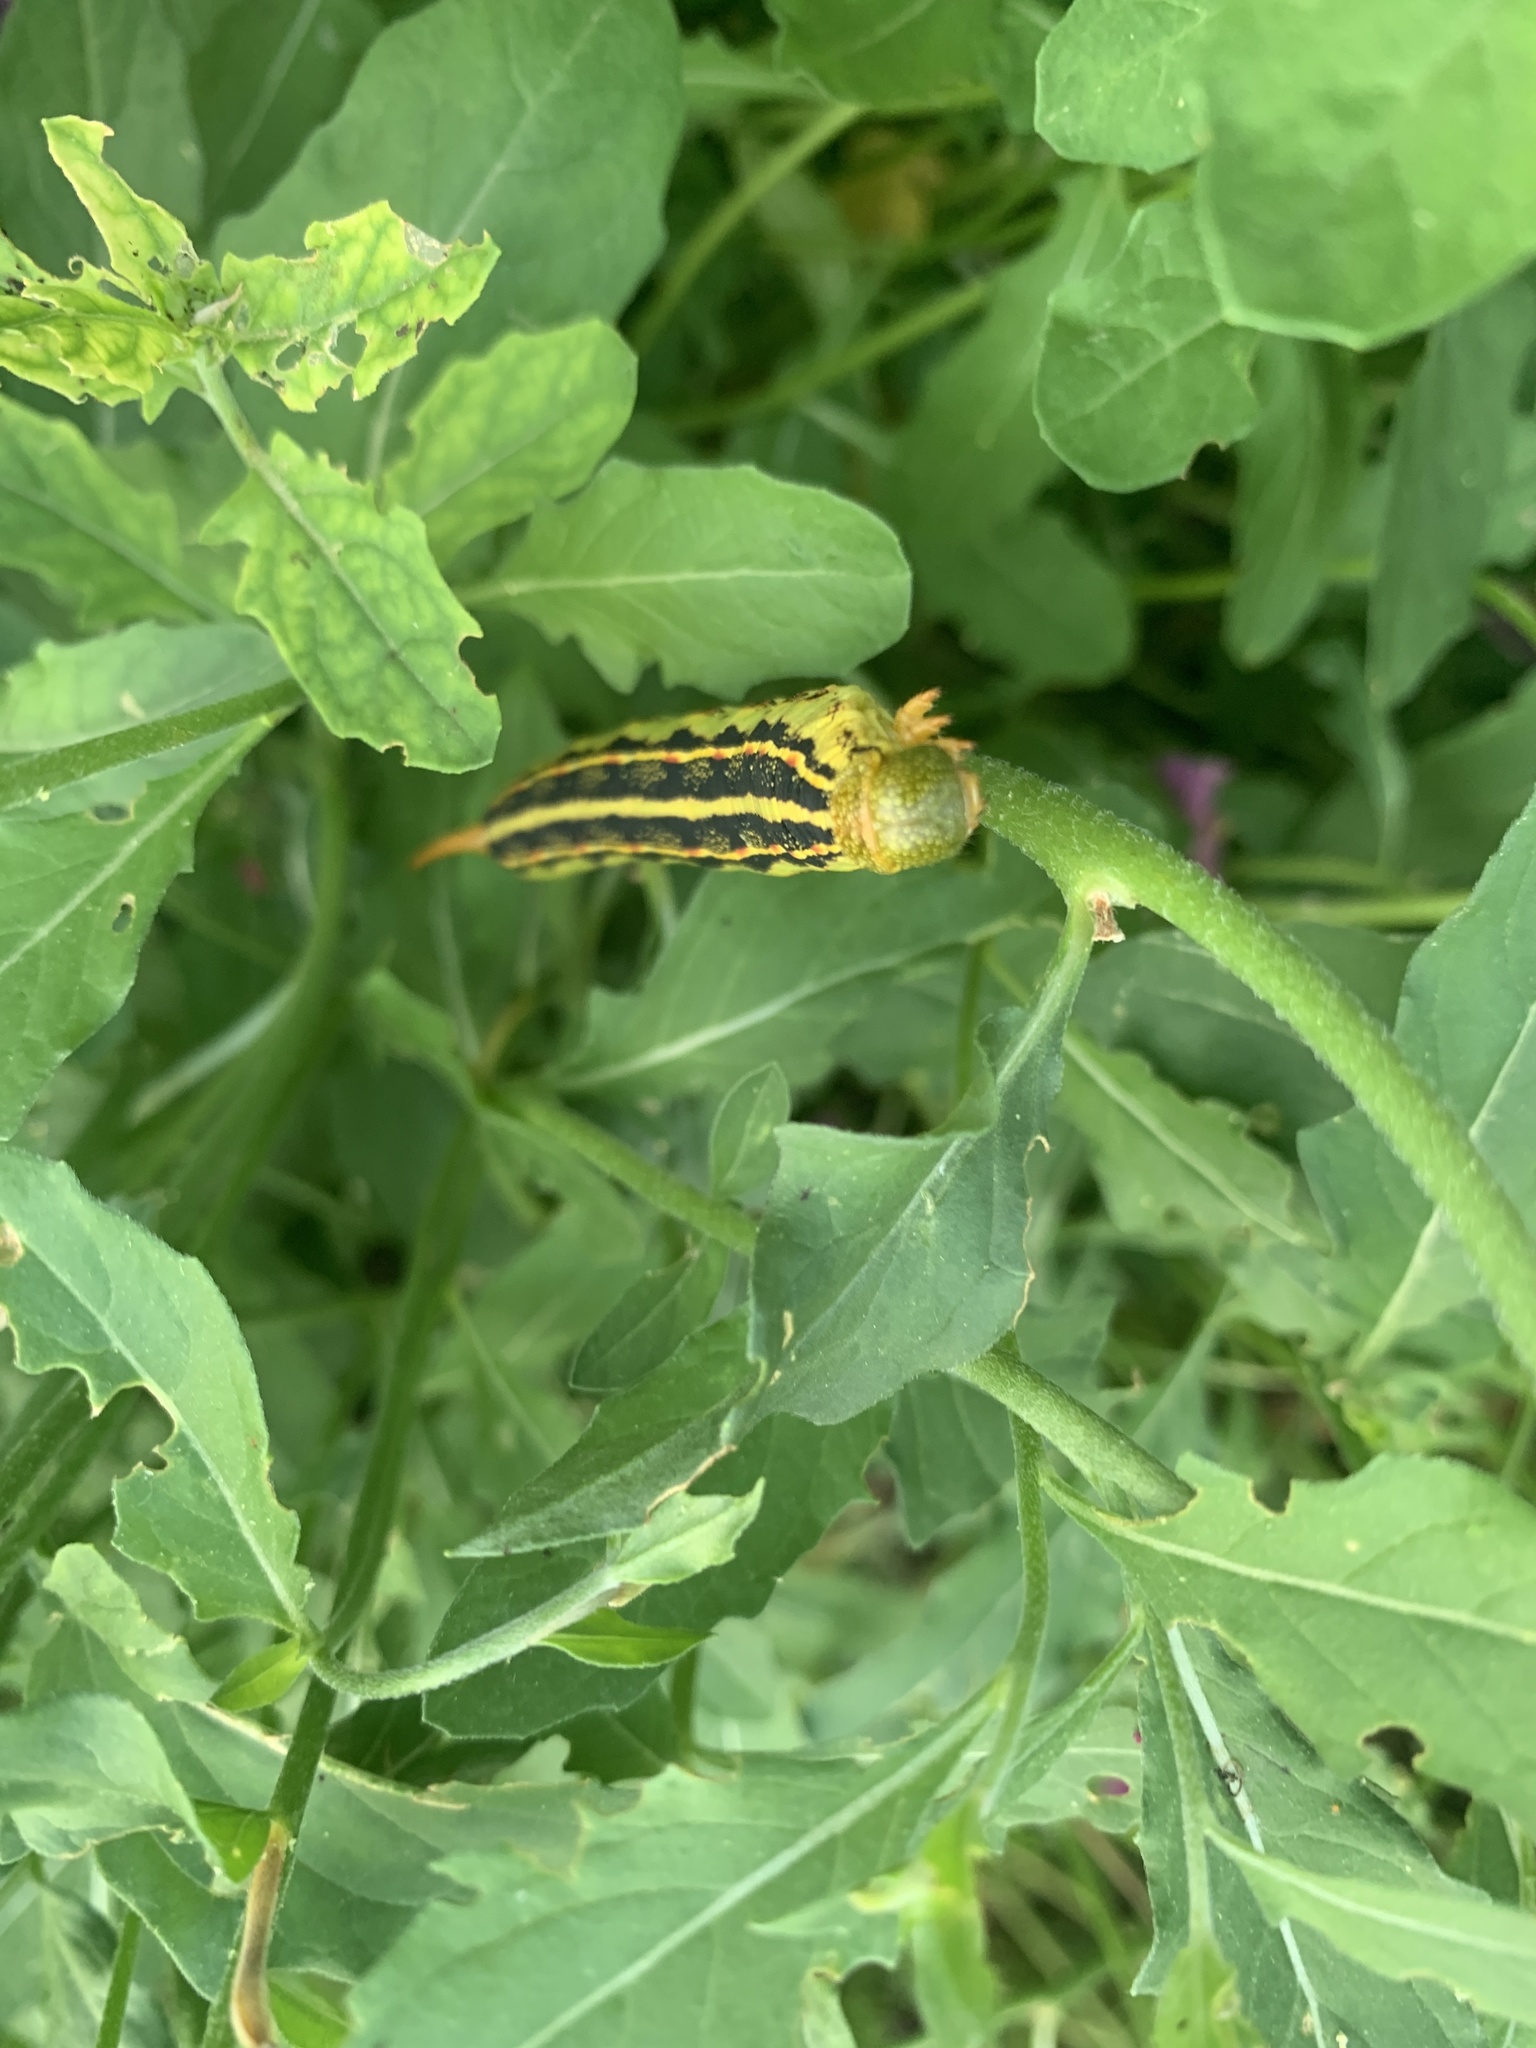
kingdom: Animalia
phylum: Arthropoda
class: Insecta
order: Lepidoptera
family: Sphingidae
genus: Hyles
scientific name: Hyles lineata
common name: White-lined sphinx
